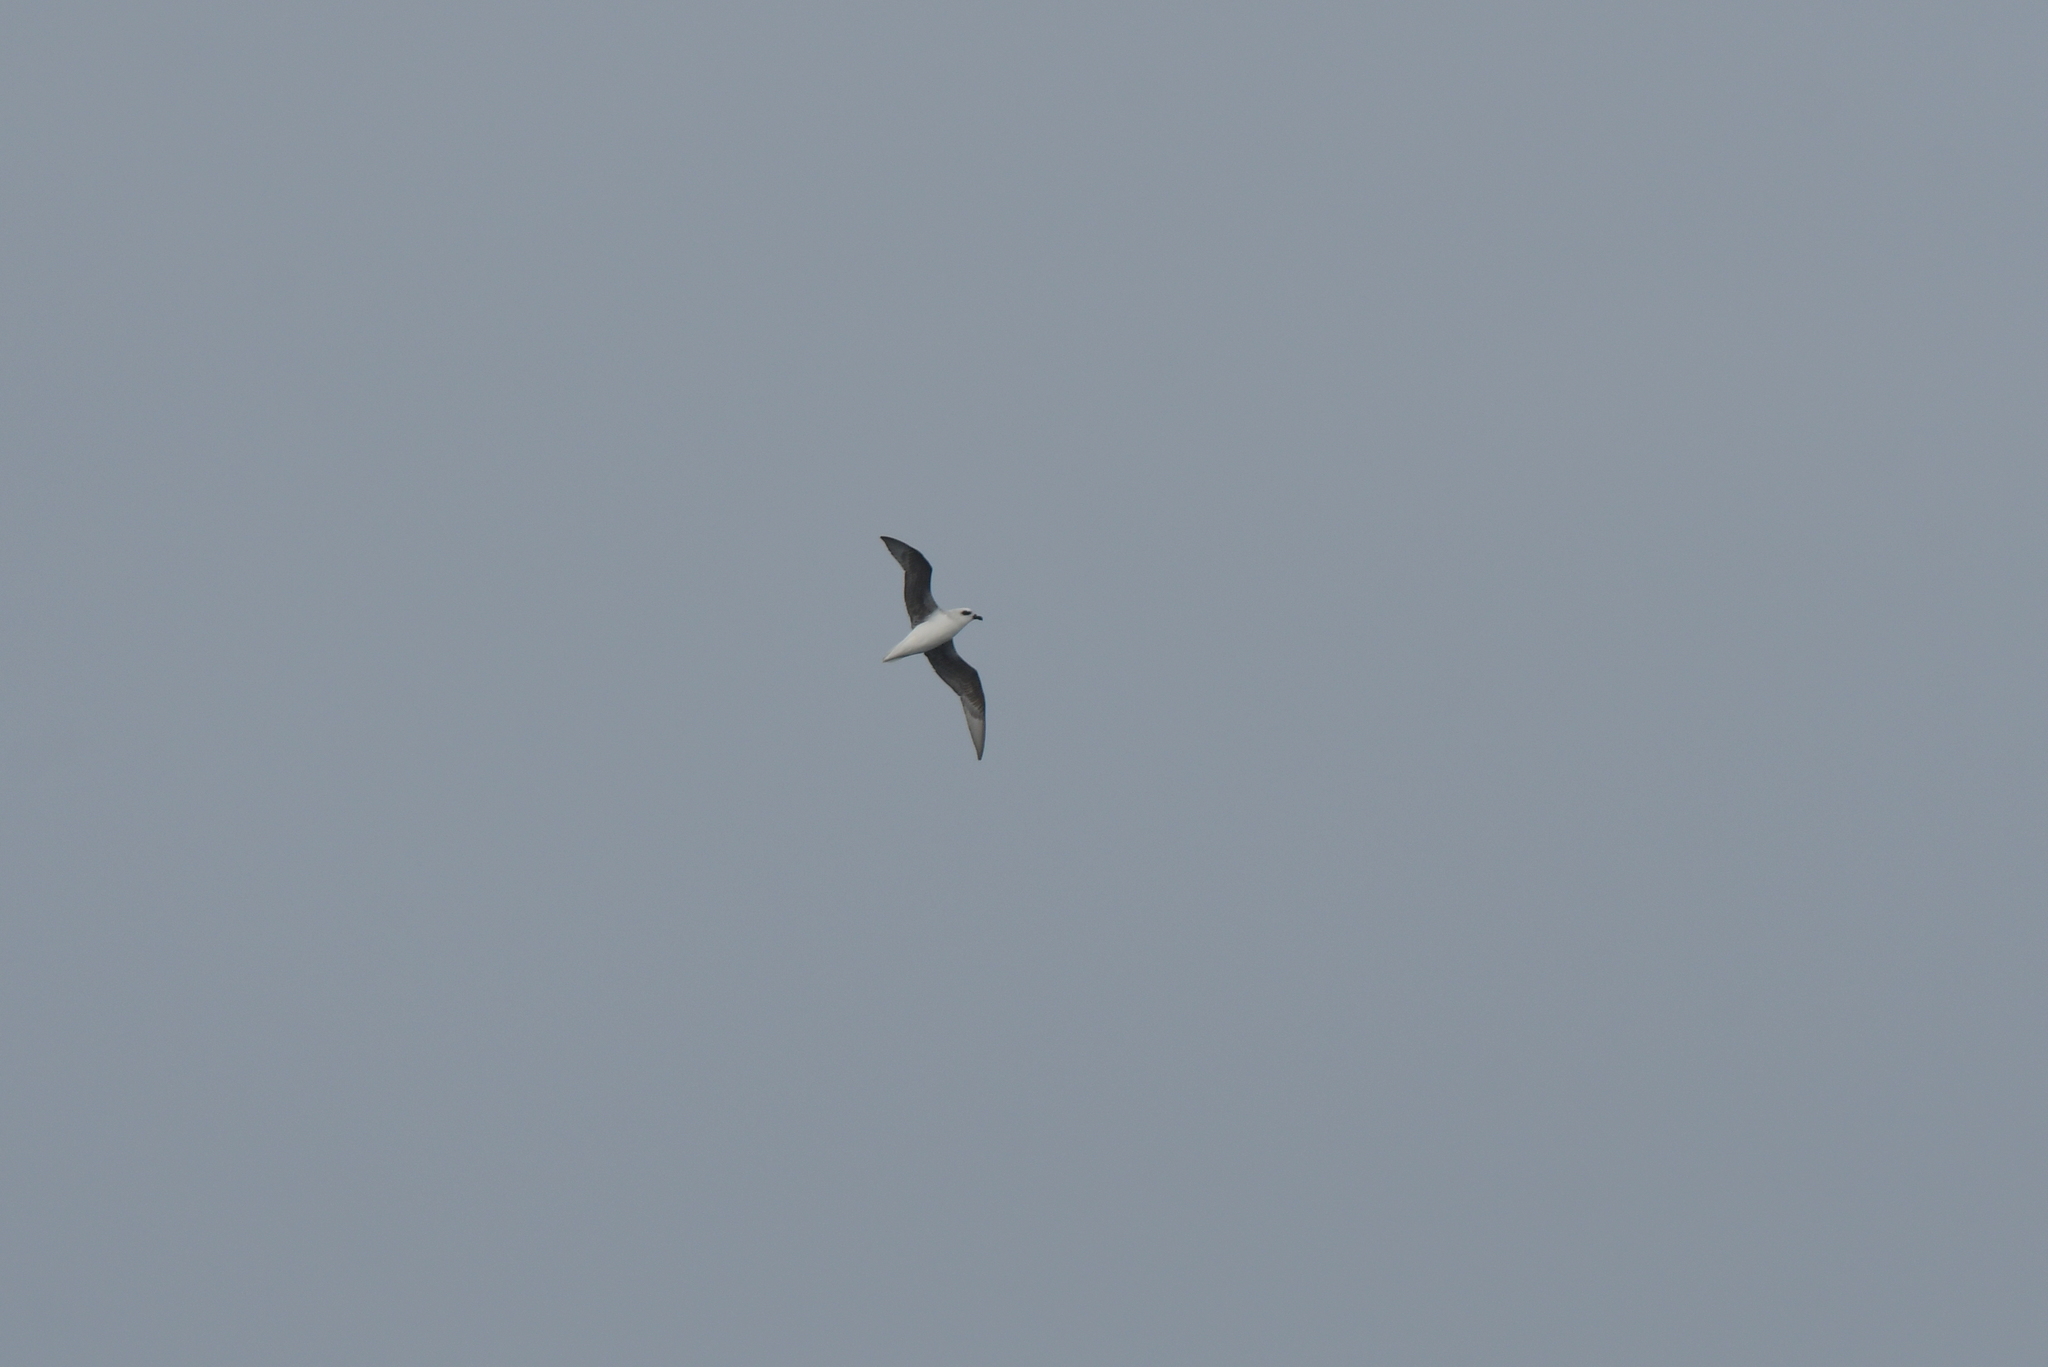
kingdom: Animalia
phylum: Chordata
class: Aves
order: Procellariiformes
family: Procellariidae
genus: Pterodroma
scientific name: Pterodroma lessonii
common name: White-headed petrel
